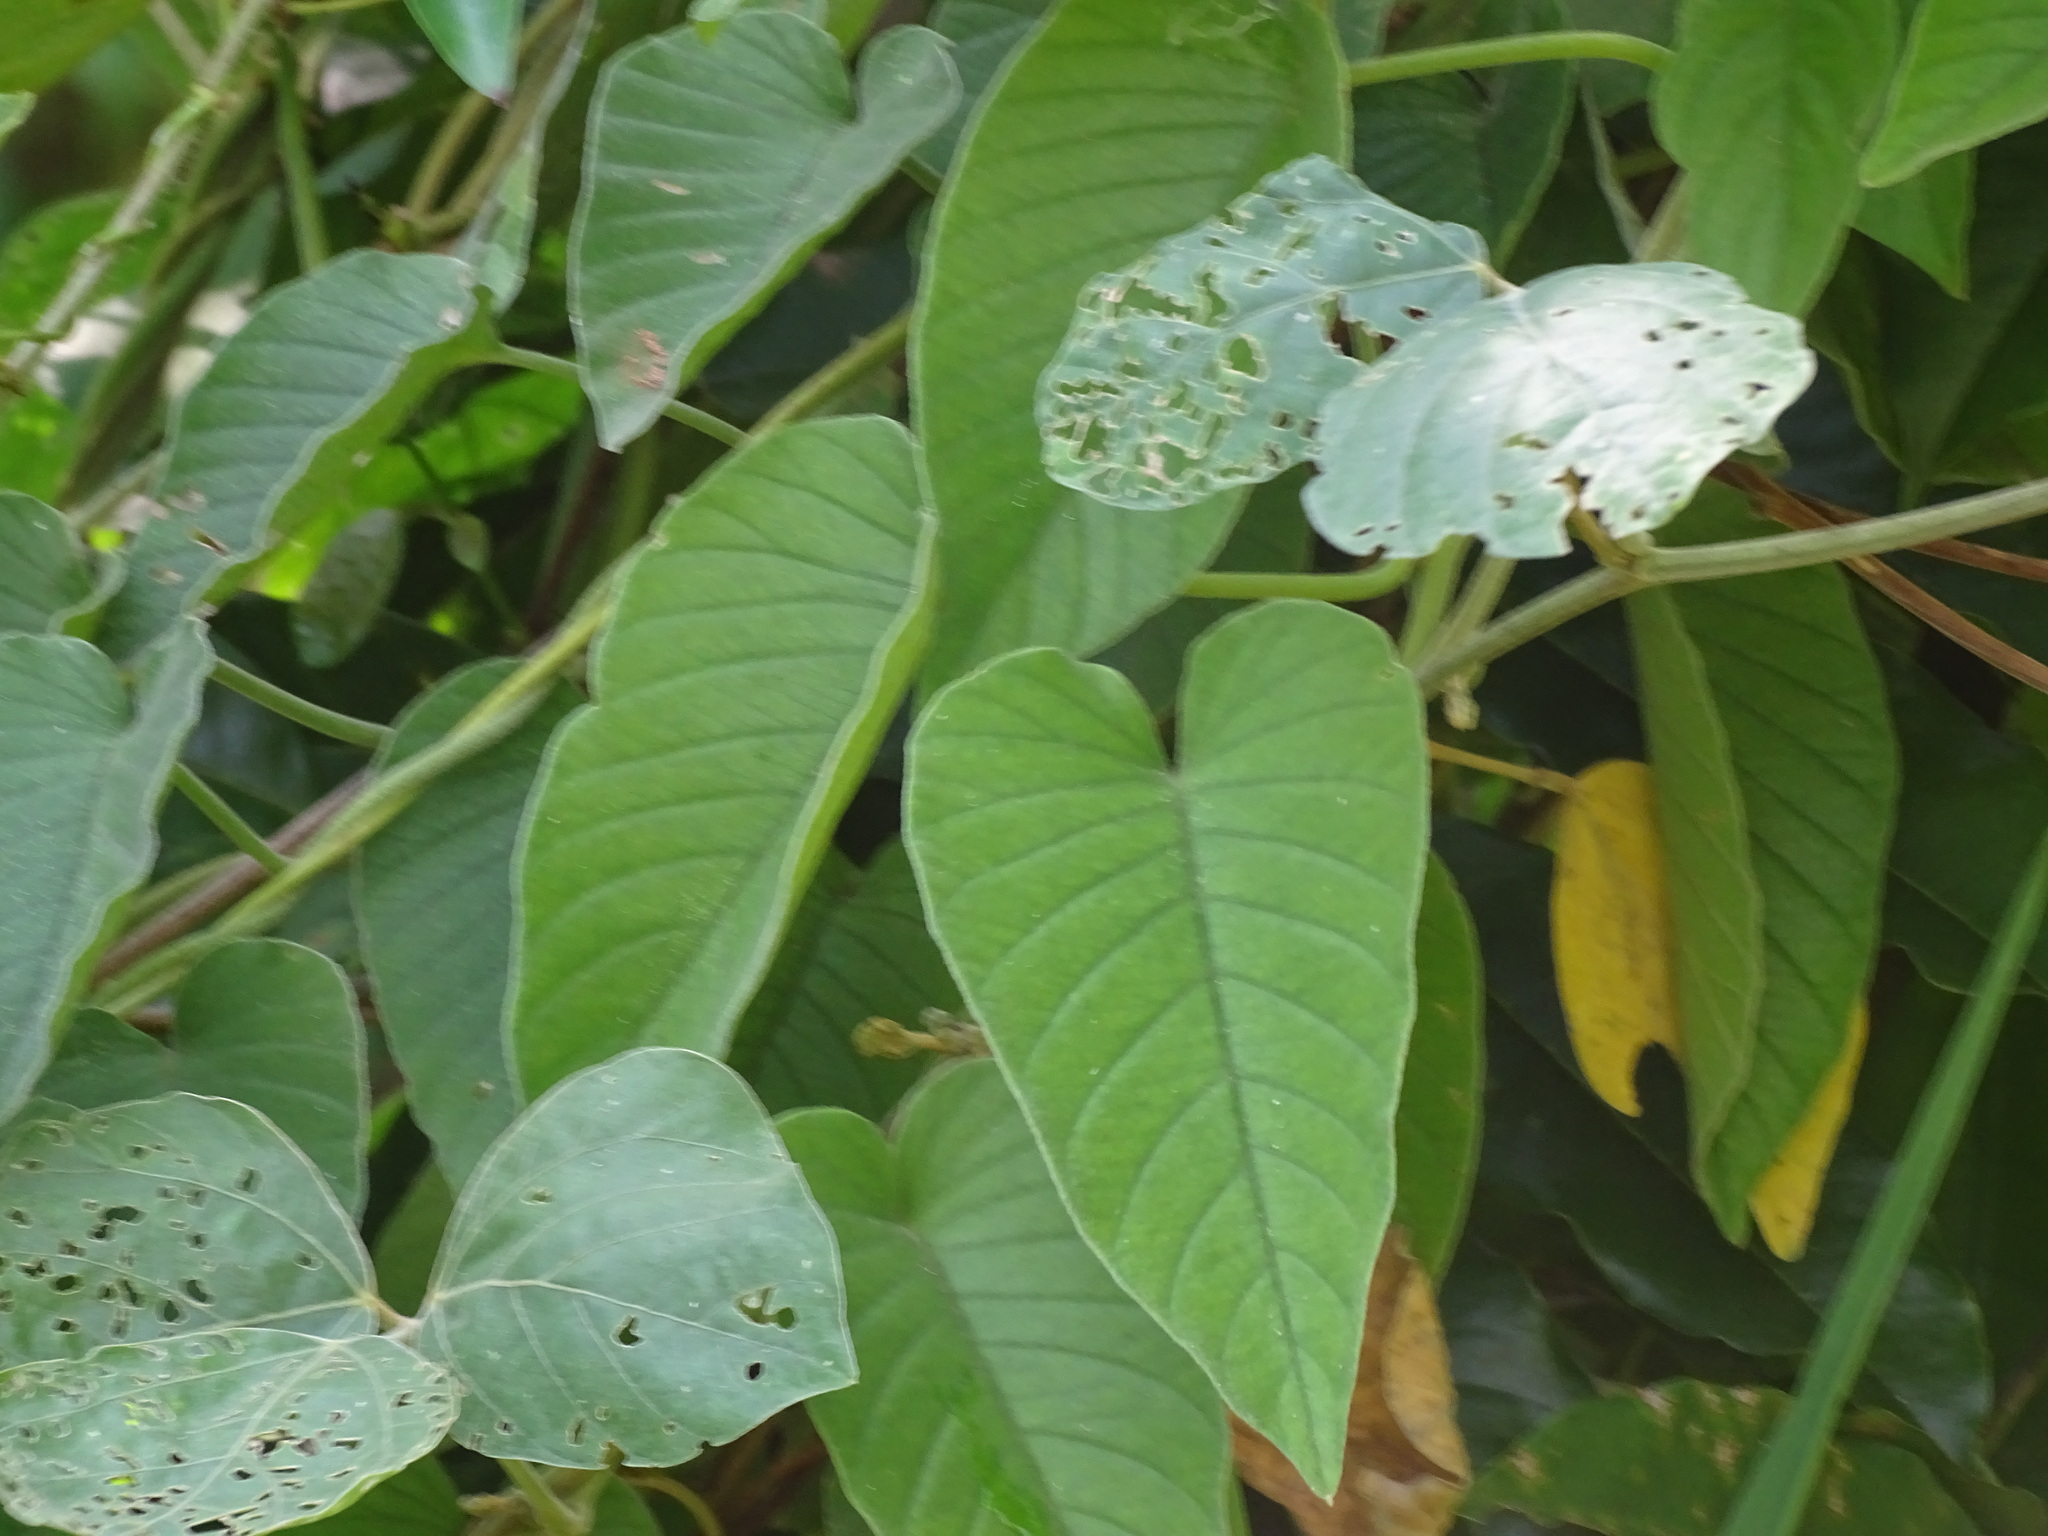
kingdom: Plantae
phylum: Tracheophyta
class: Magnoliopsida
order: Solanales
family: Convolvulaceae
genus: Odonellia
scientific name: Odonellia hirtiflora
